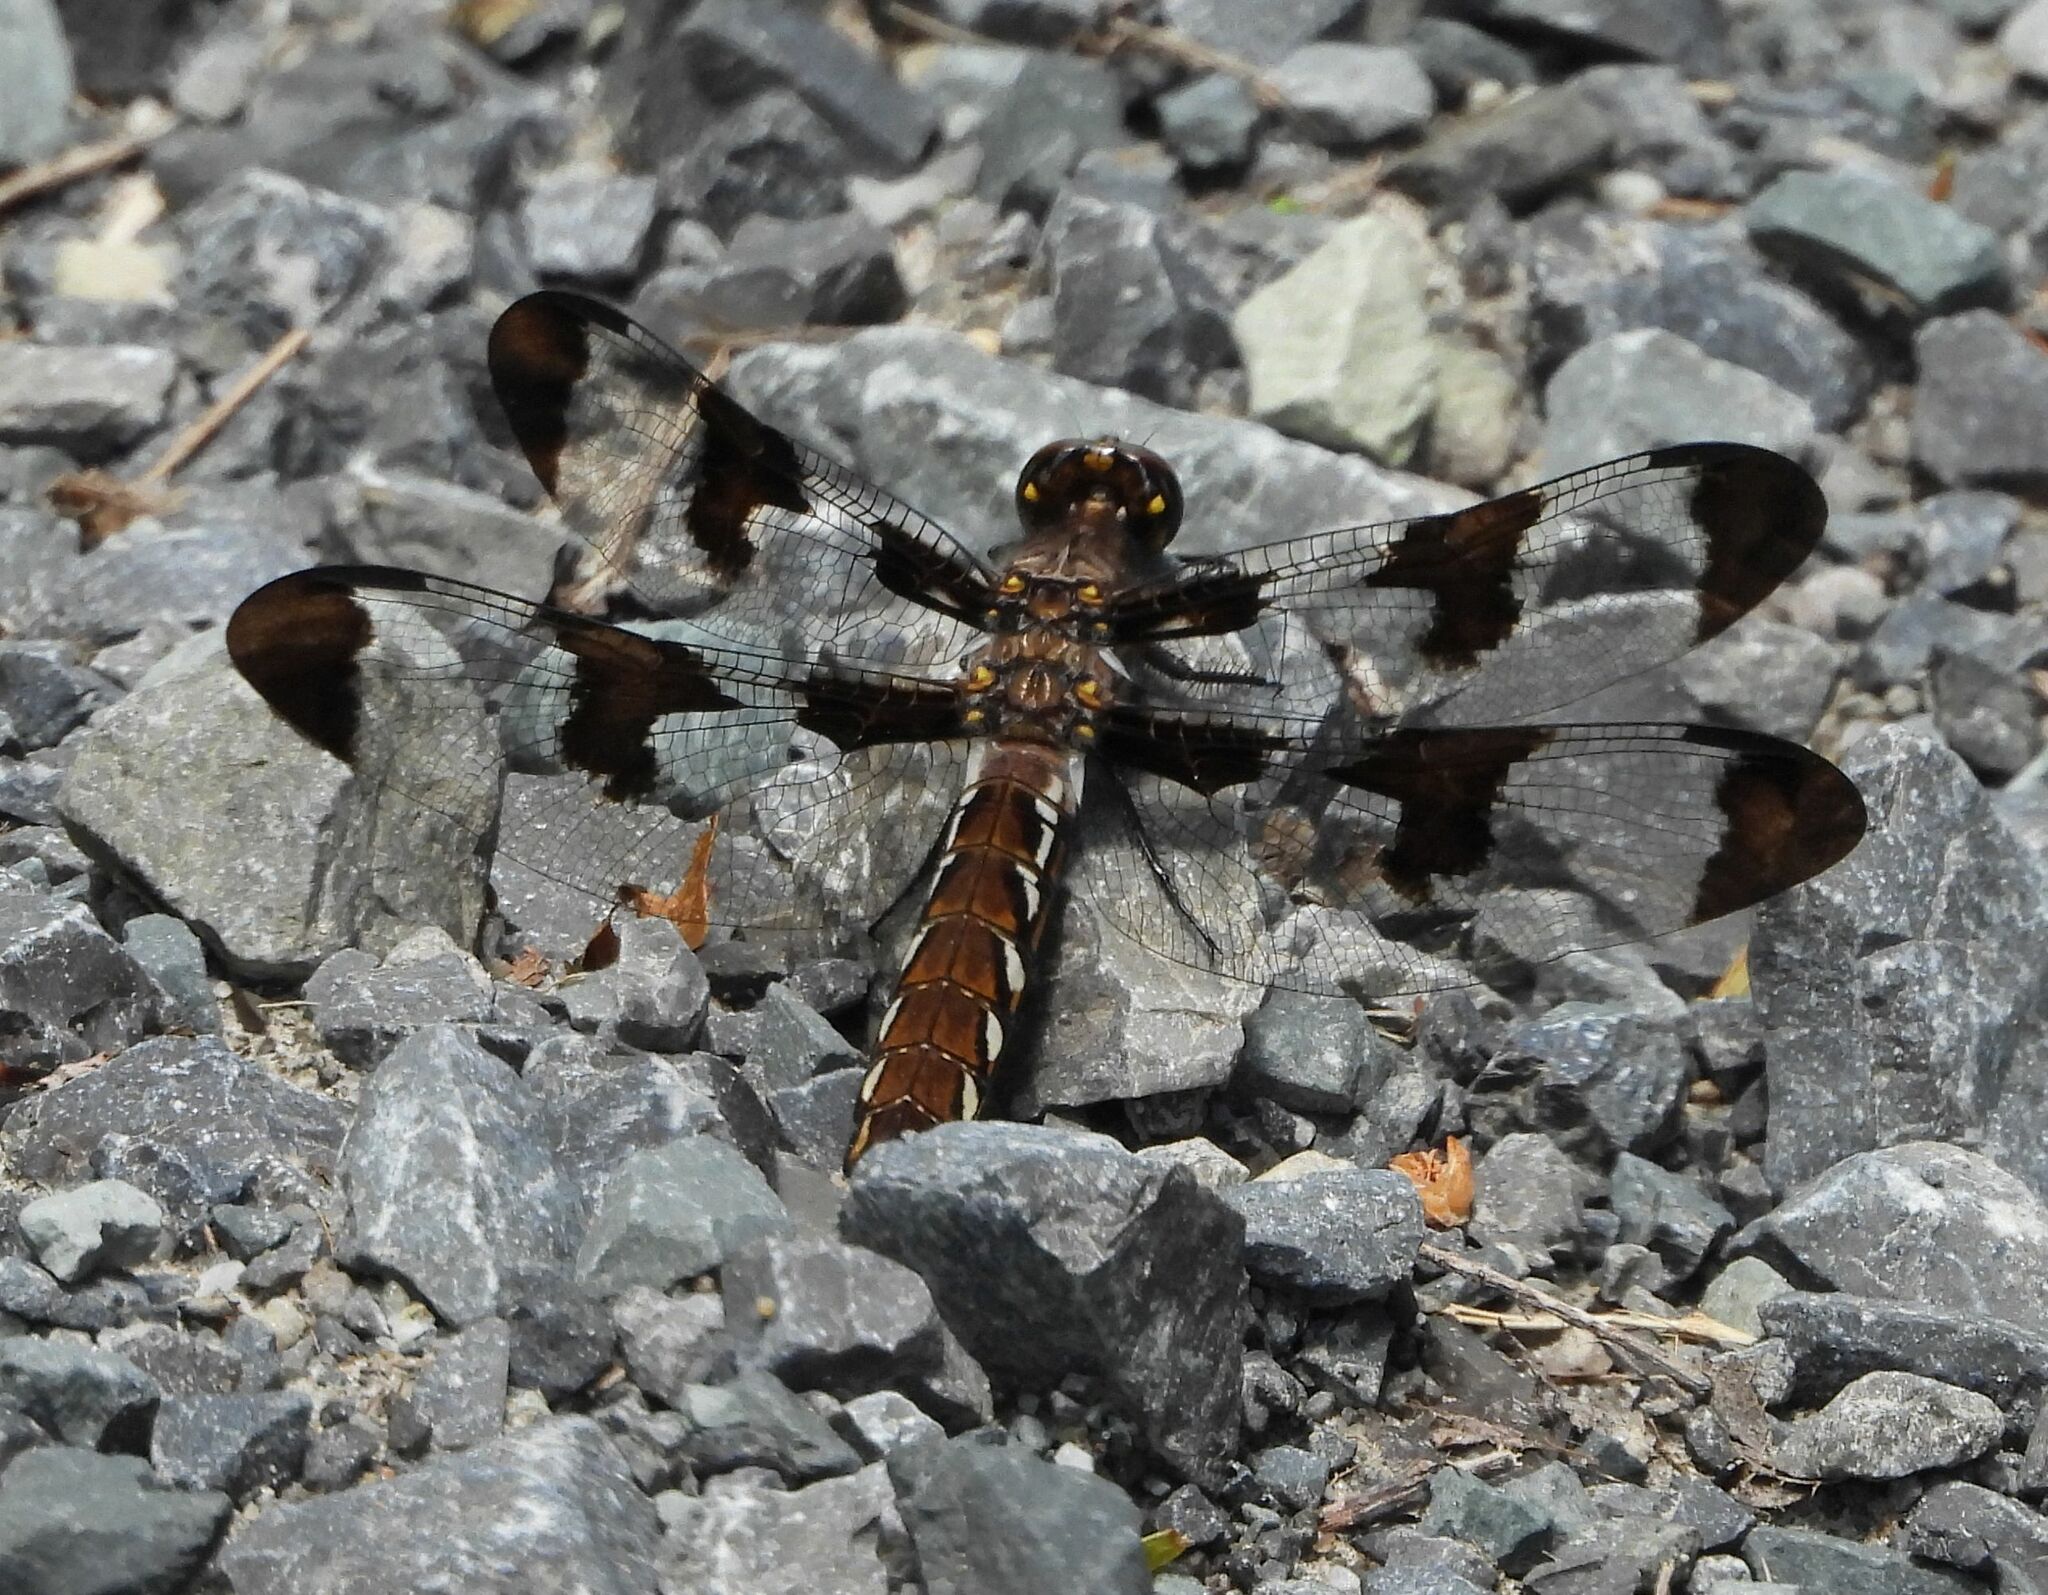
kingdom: Animalia
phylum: Arthropoda
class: Insecta
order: Odonata
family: Libellulidae
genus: Plathemis
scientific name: Plathemis lydia
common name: Common whitetail
